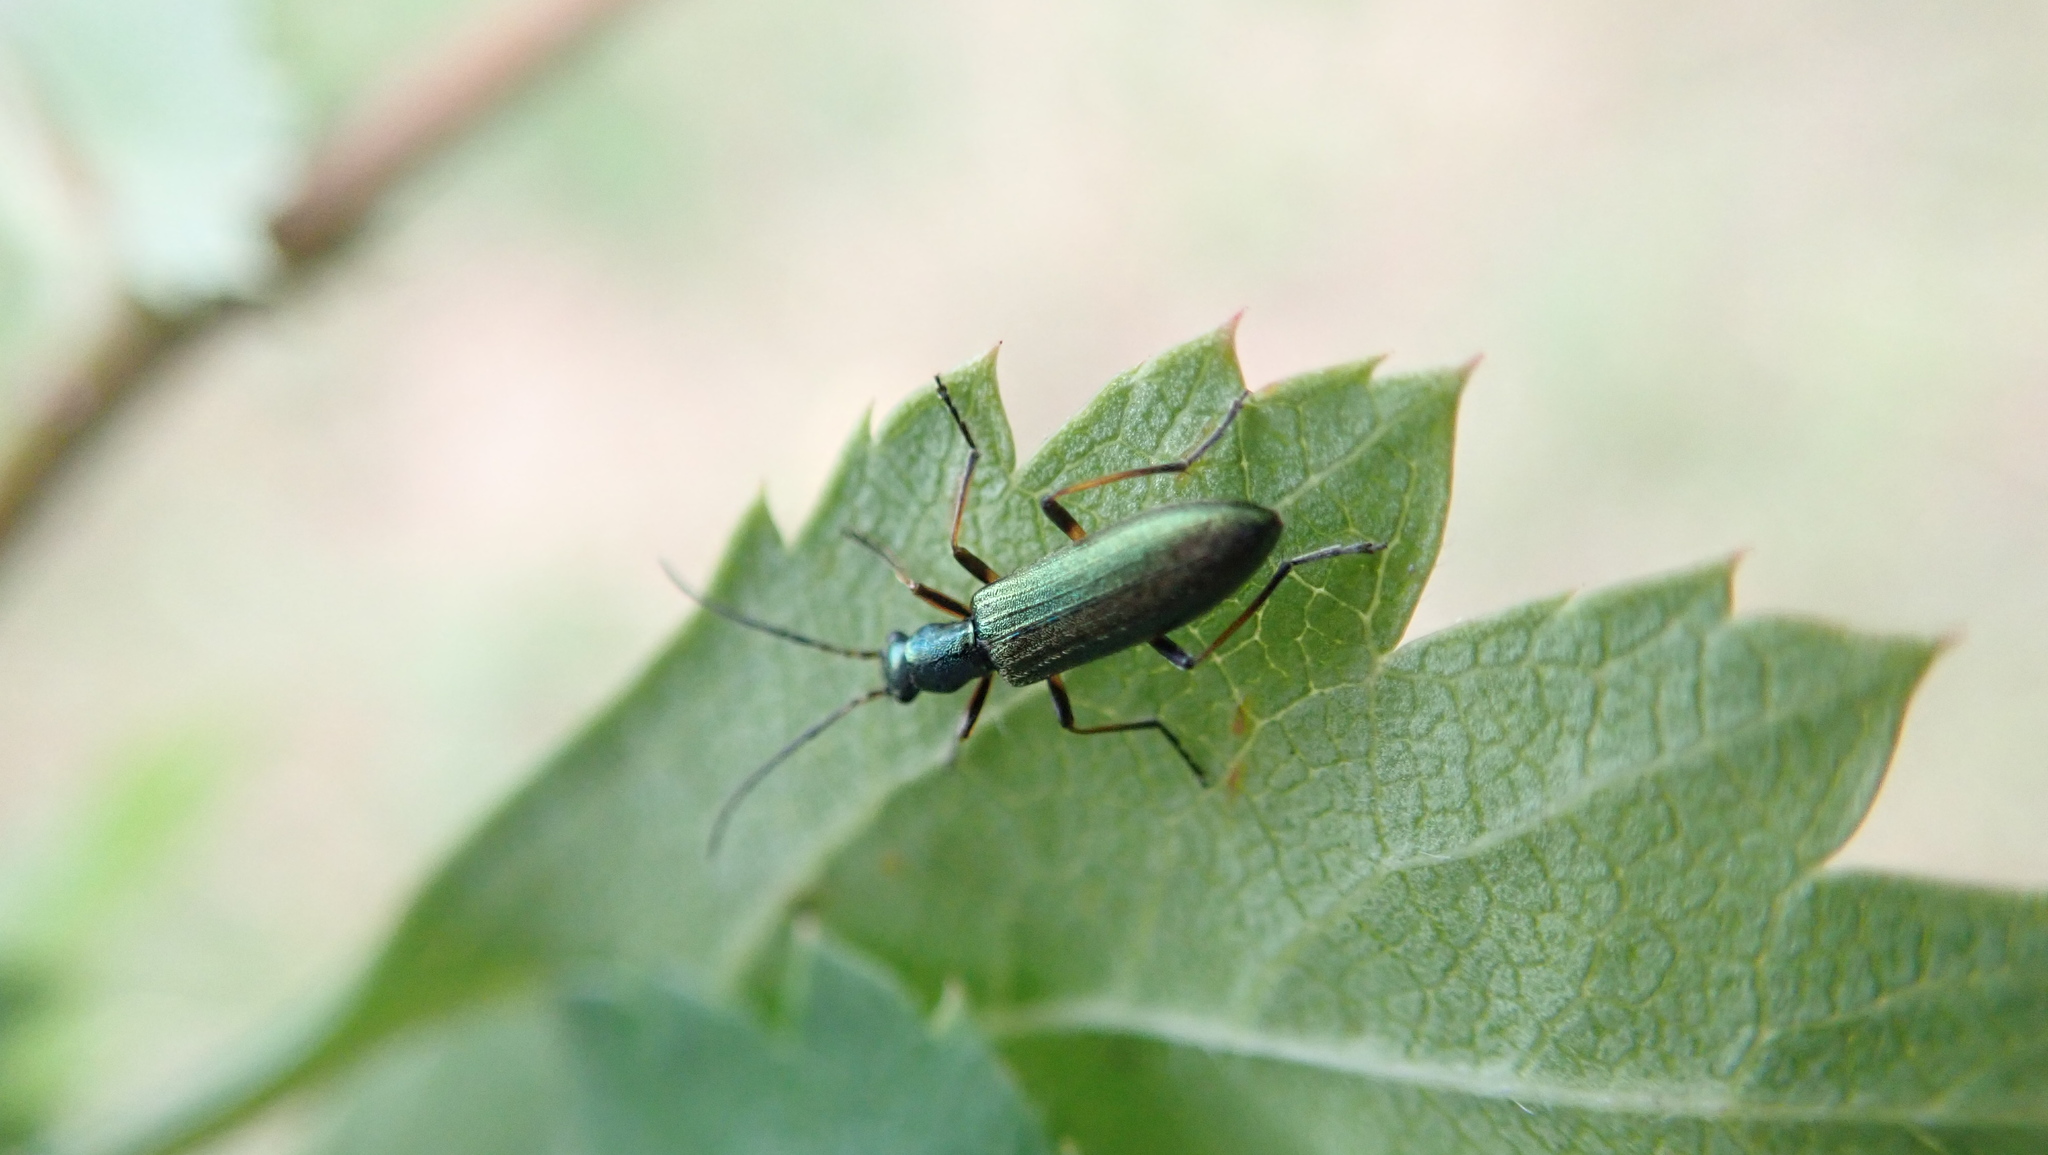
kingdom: Animalia
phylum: Arthropoda
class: Insecta
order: Coleoptera
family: Oedemeridae
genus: Chrysanthia
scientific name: Chrysanthia geniculata
